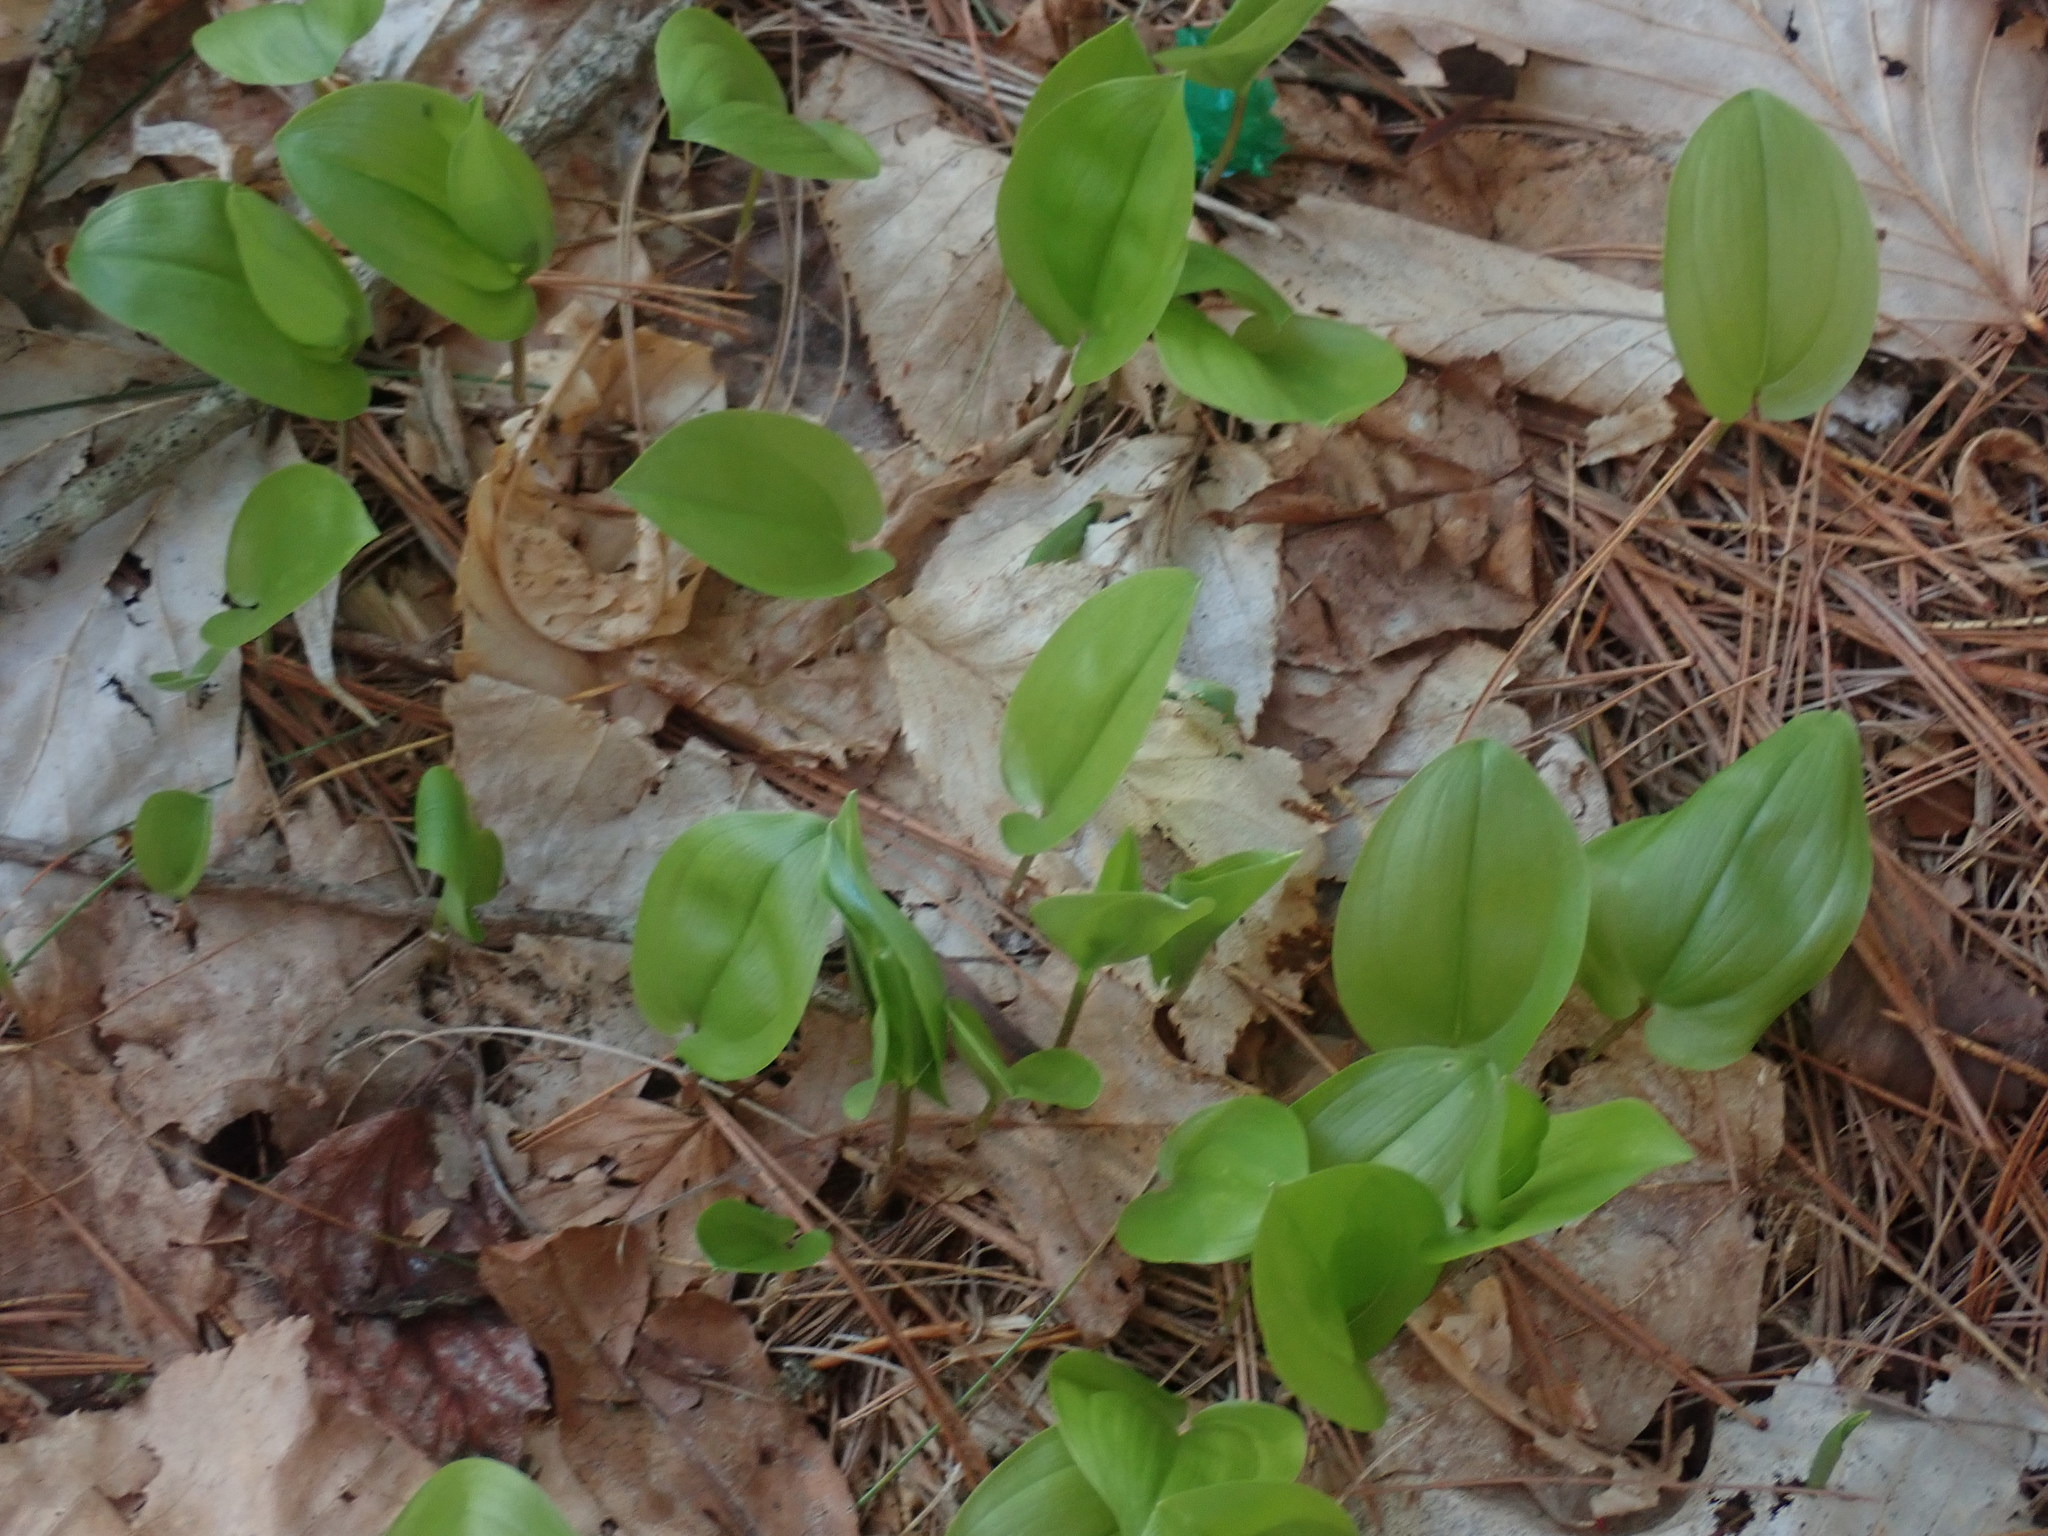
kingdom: Plantae
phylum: Tracheophyta
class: Liliopsida
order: Asparagales
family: Asparagaceae
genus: Maianthemum
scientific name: Maianthemum canadense
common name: False lily-of-the-valley
